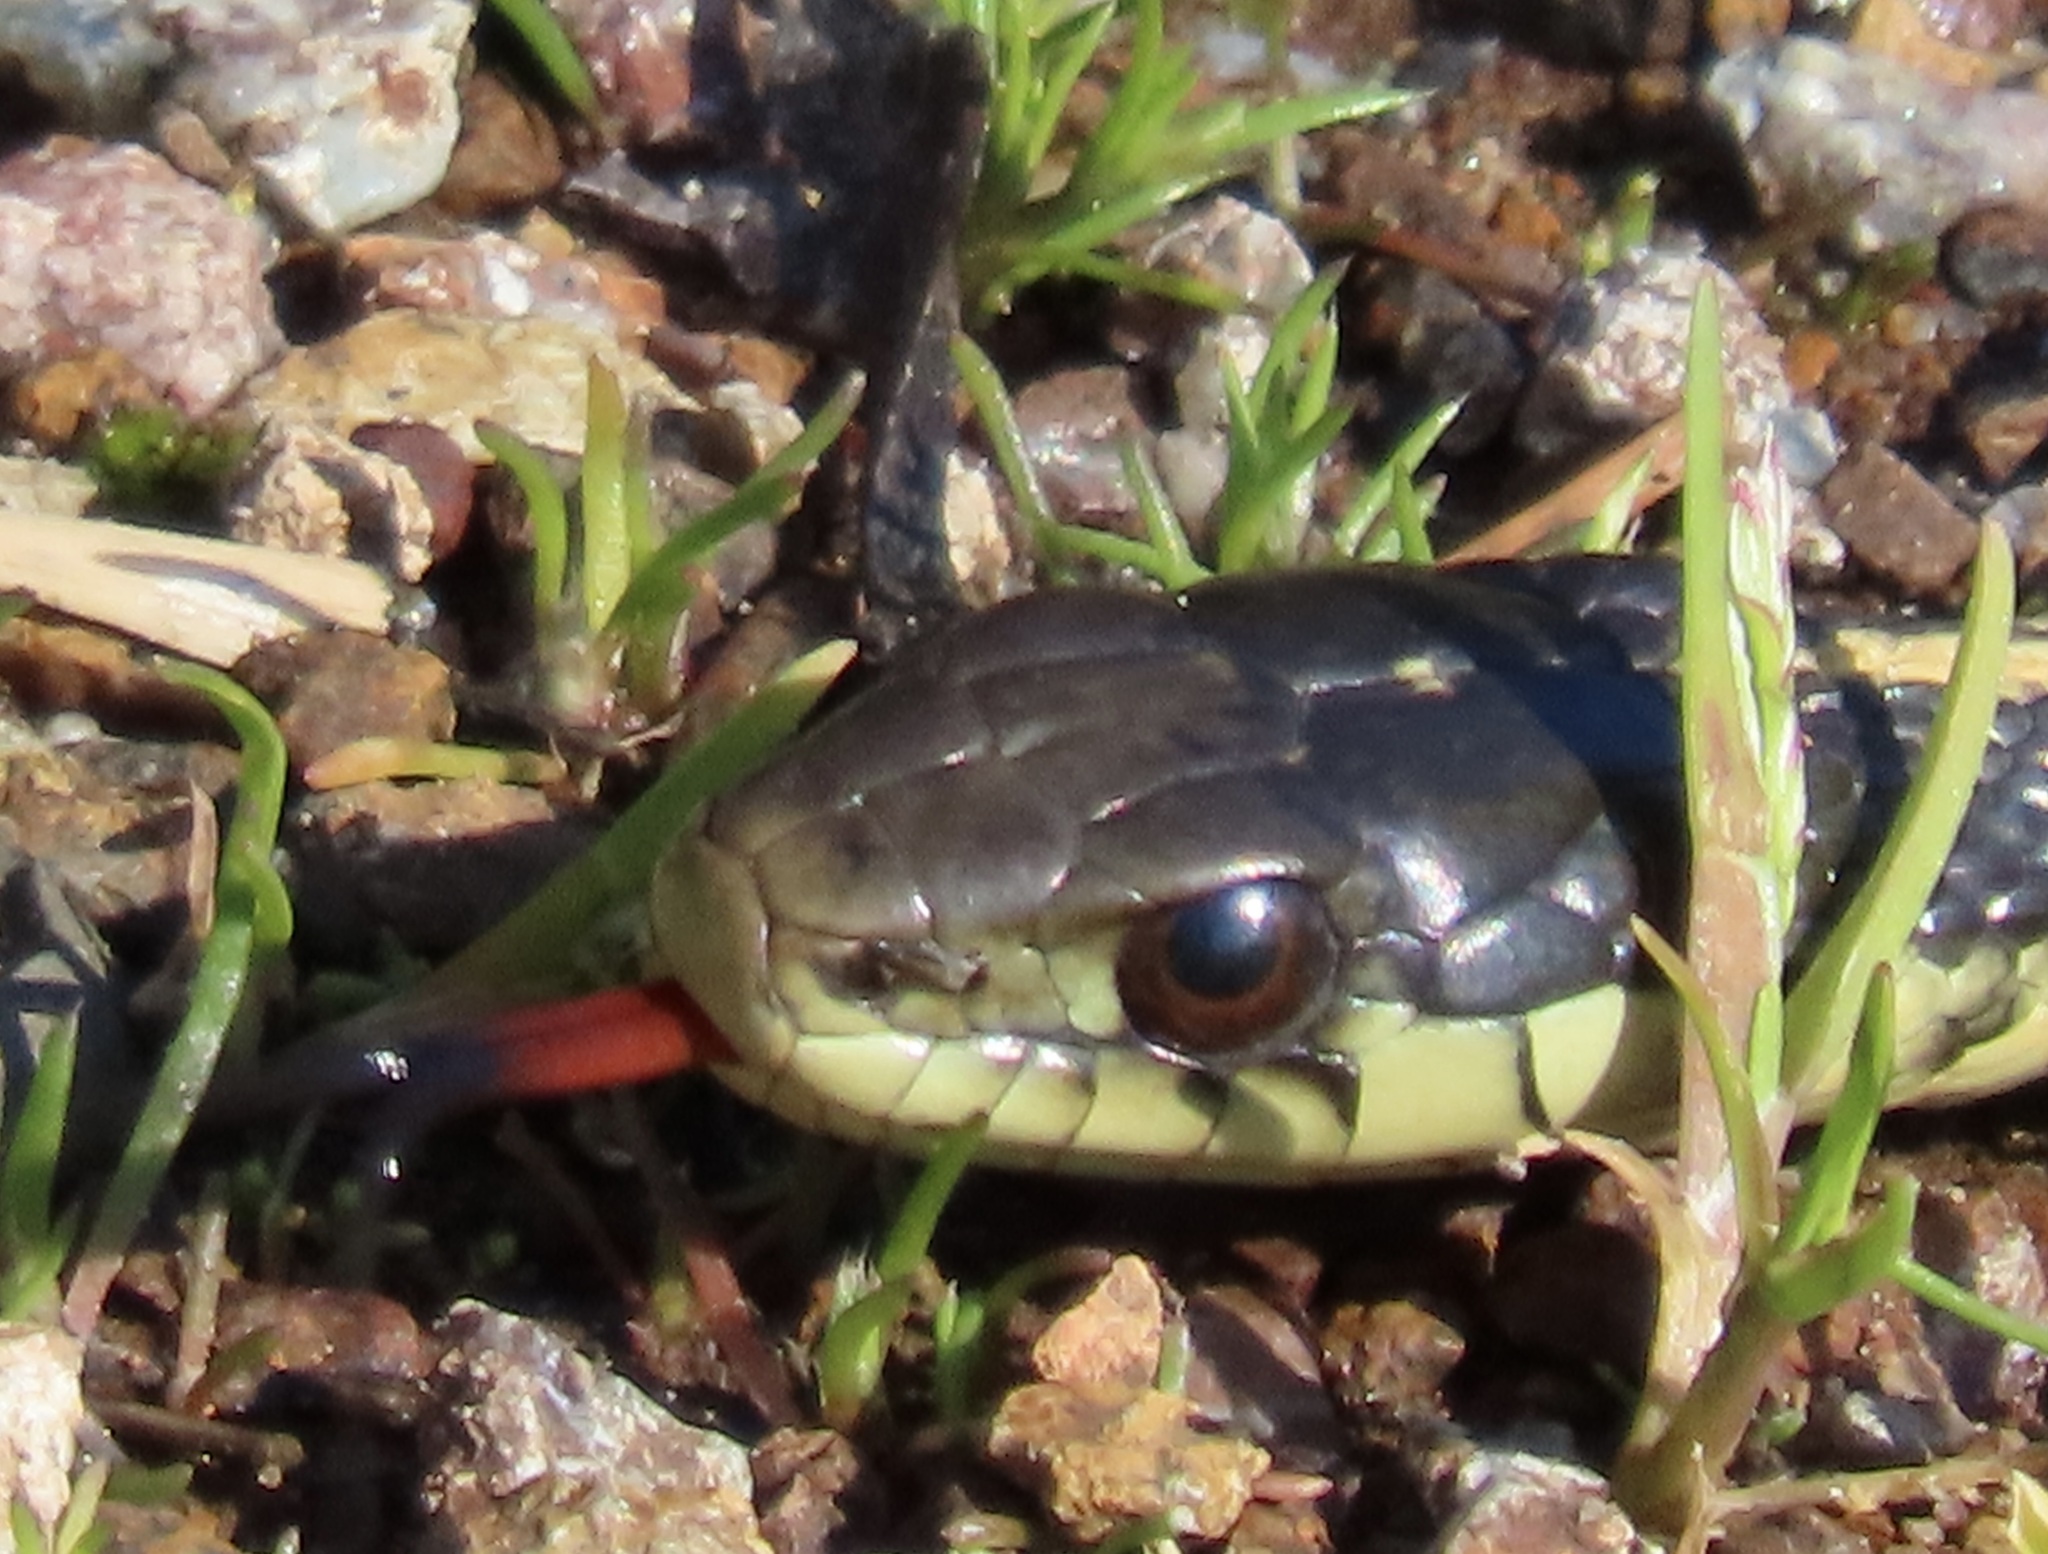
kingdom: Animalia
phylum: Chordata
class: Squamata
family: Colubridae
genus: Thamnophis
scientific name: Thamnophis atratus
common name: Pacific coast aquatic garter snake
